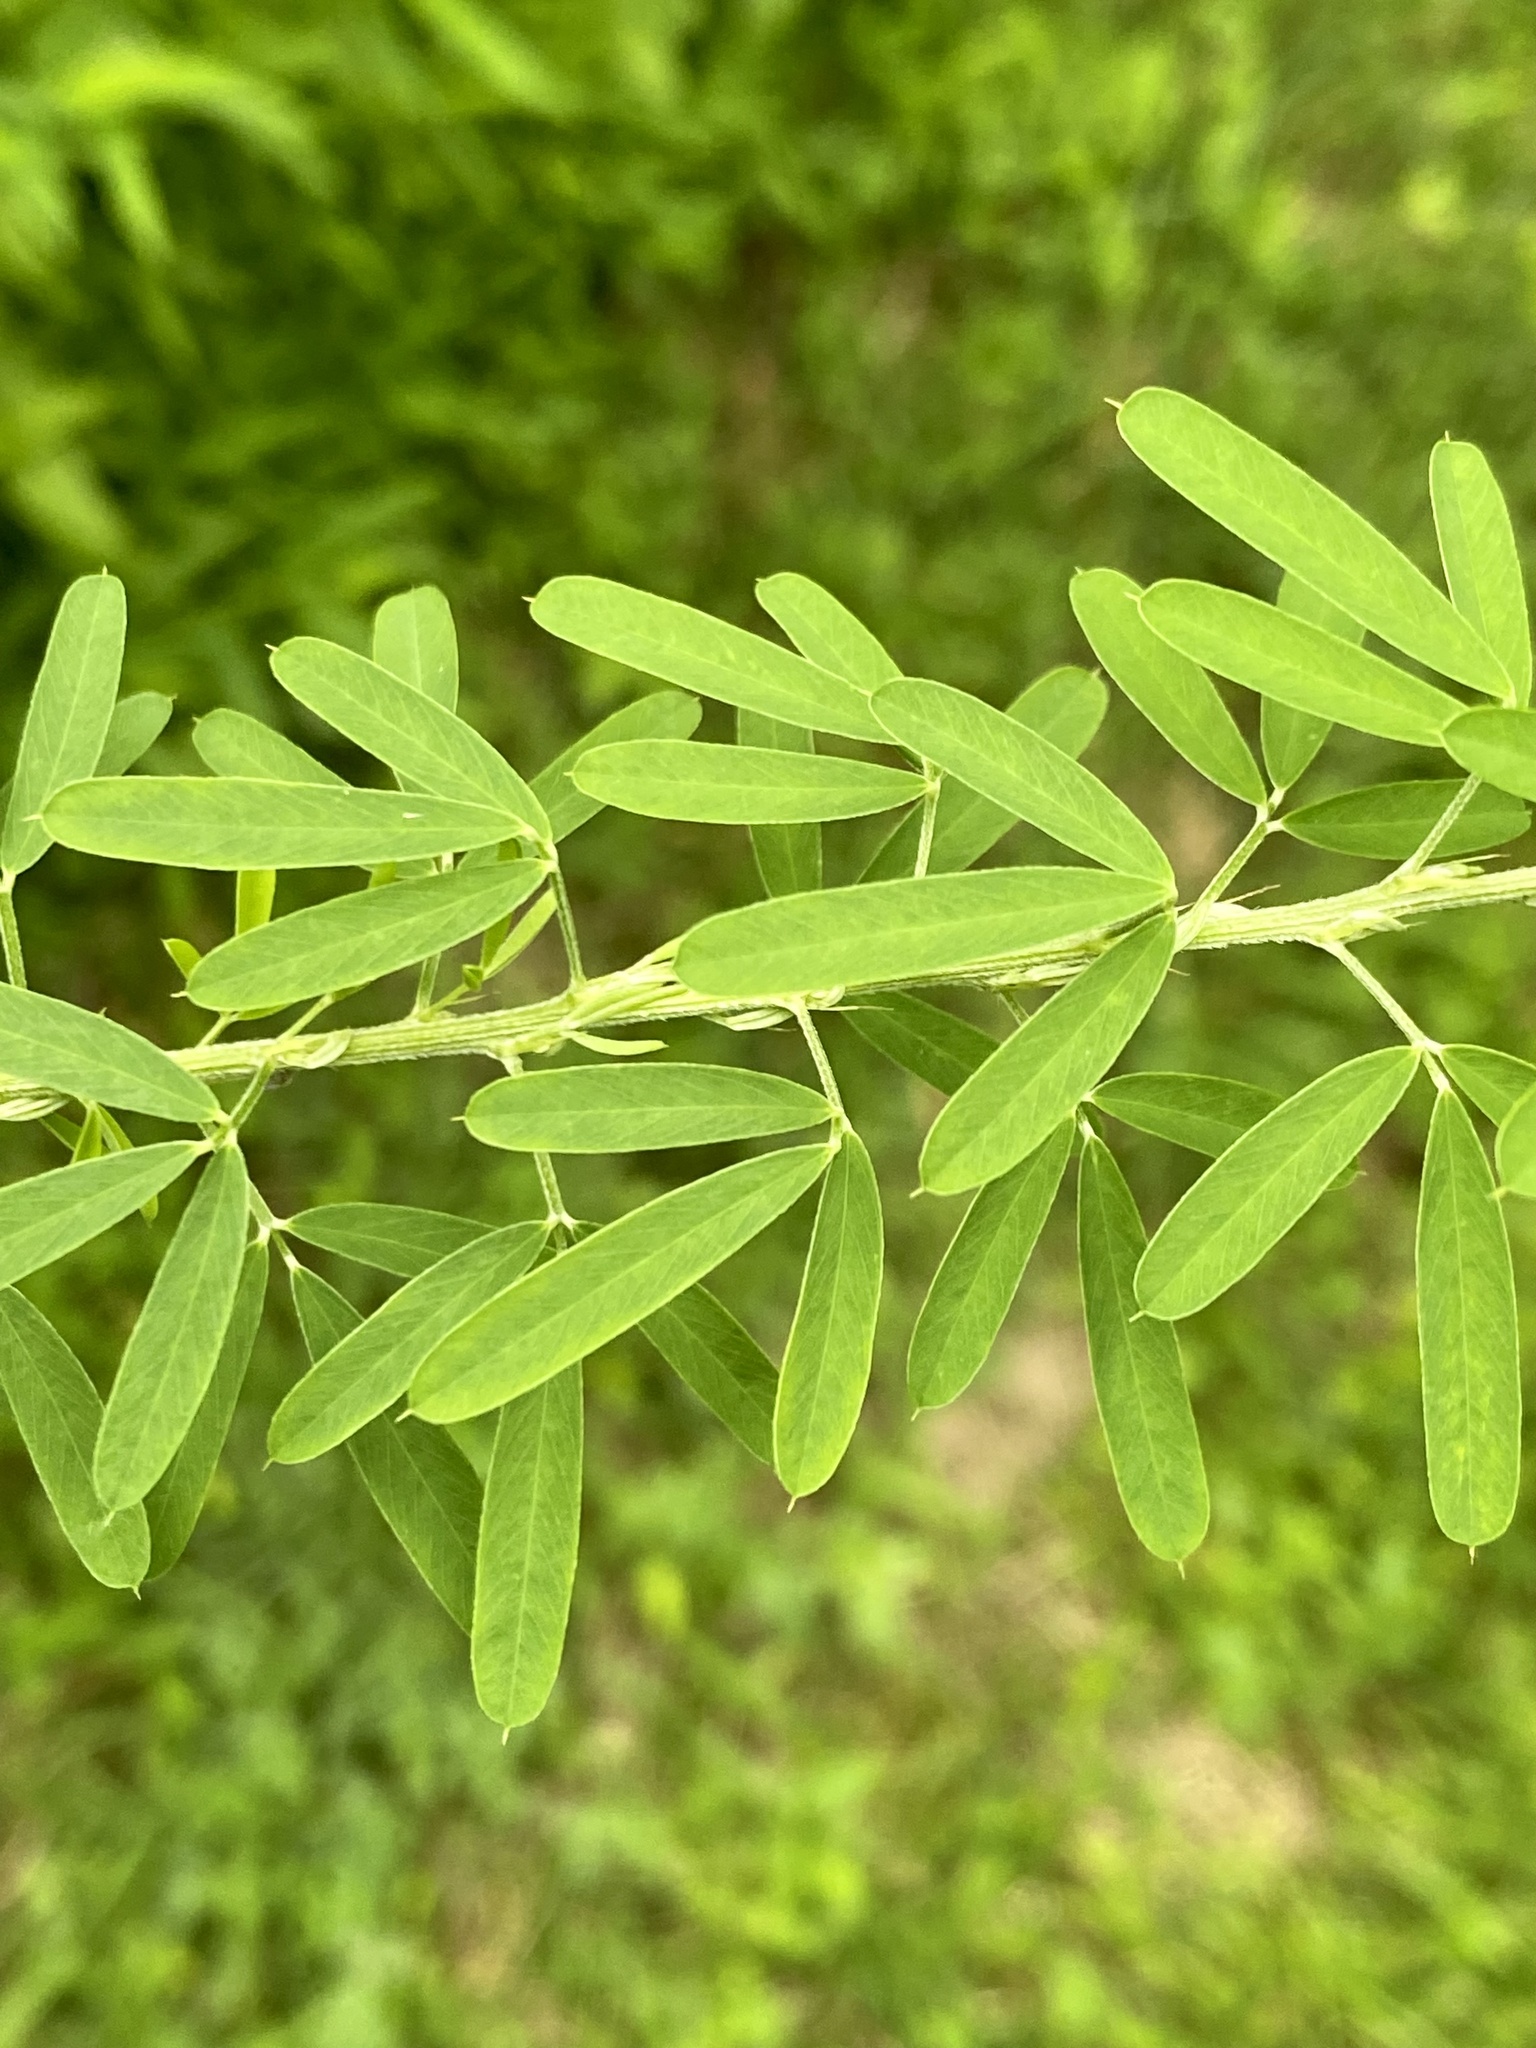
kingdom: Plantae
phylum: Tracheophyta
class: Magnoliopsida
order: Fabales
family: Fabaceae
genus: Lespedeza
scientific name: Lespedeza cuneata
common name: Chinese bush-clover
